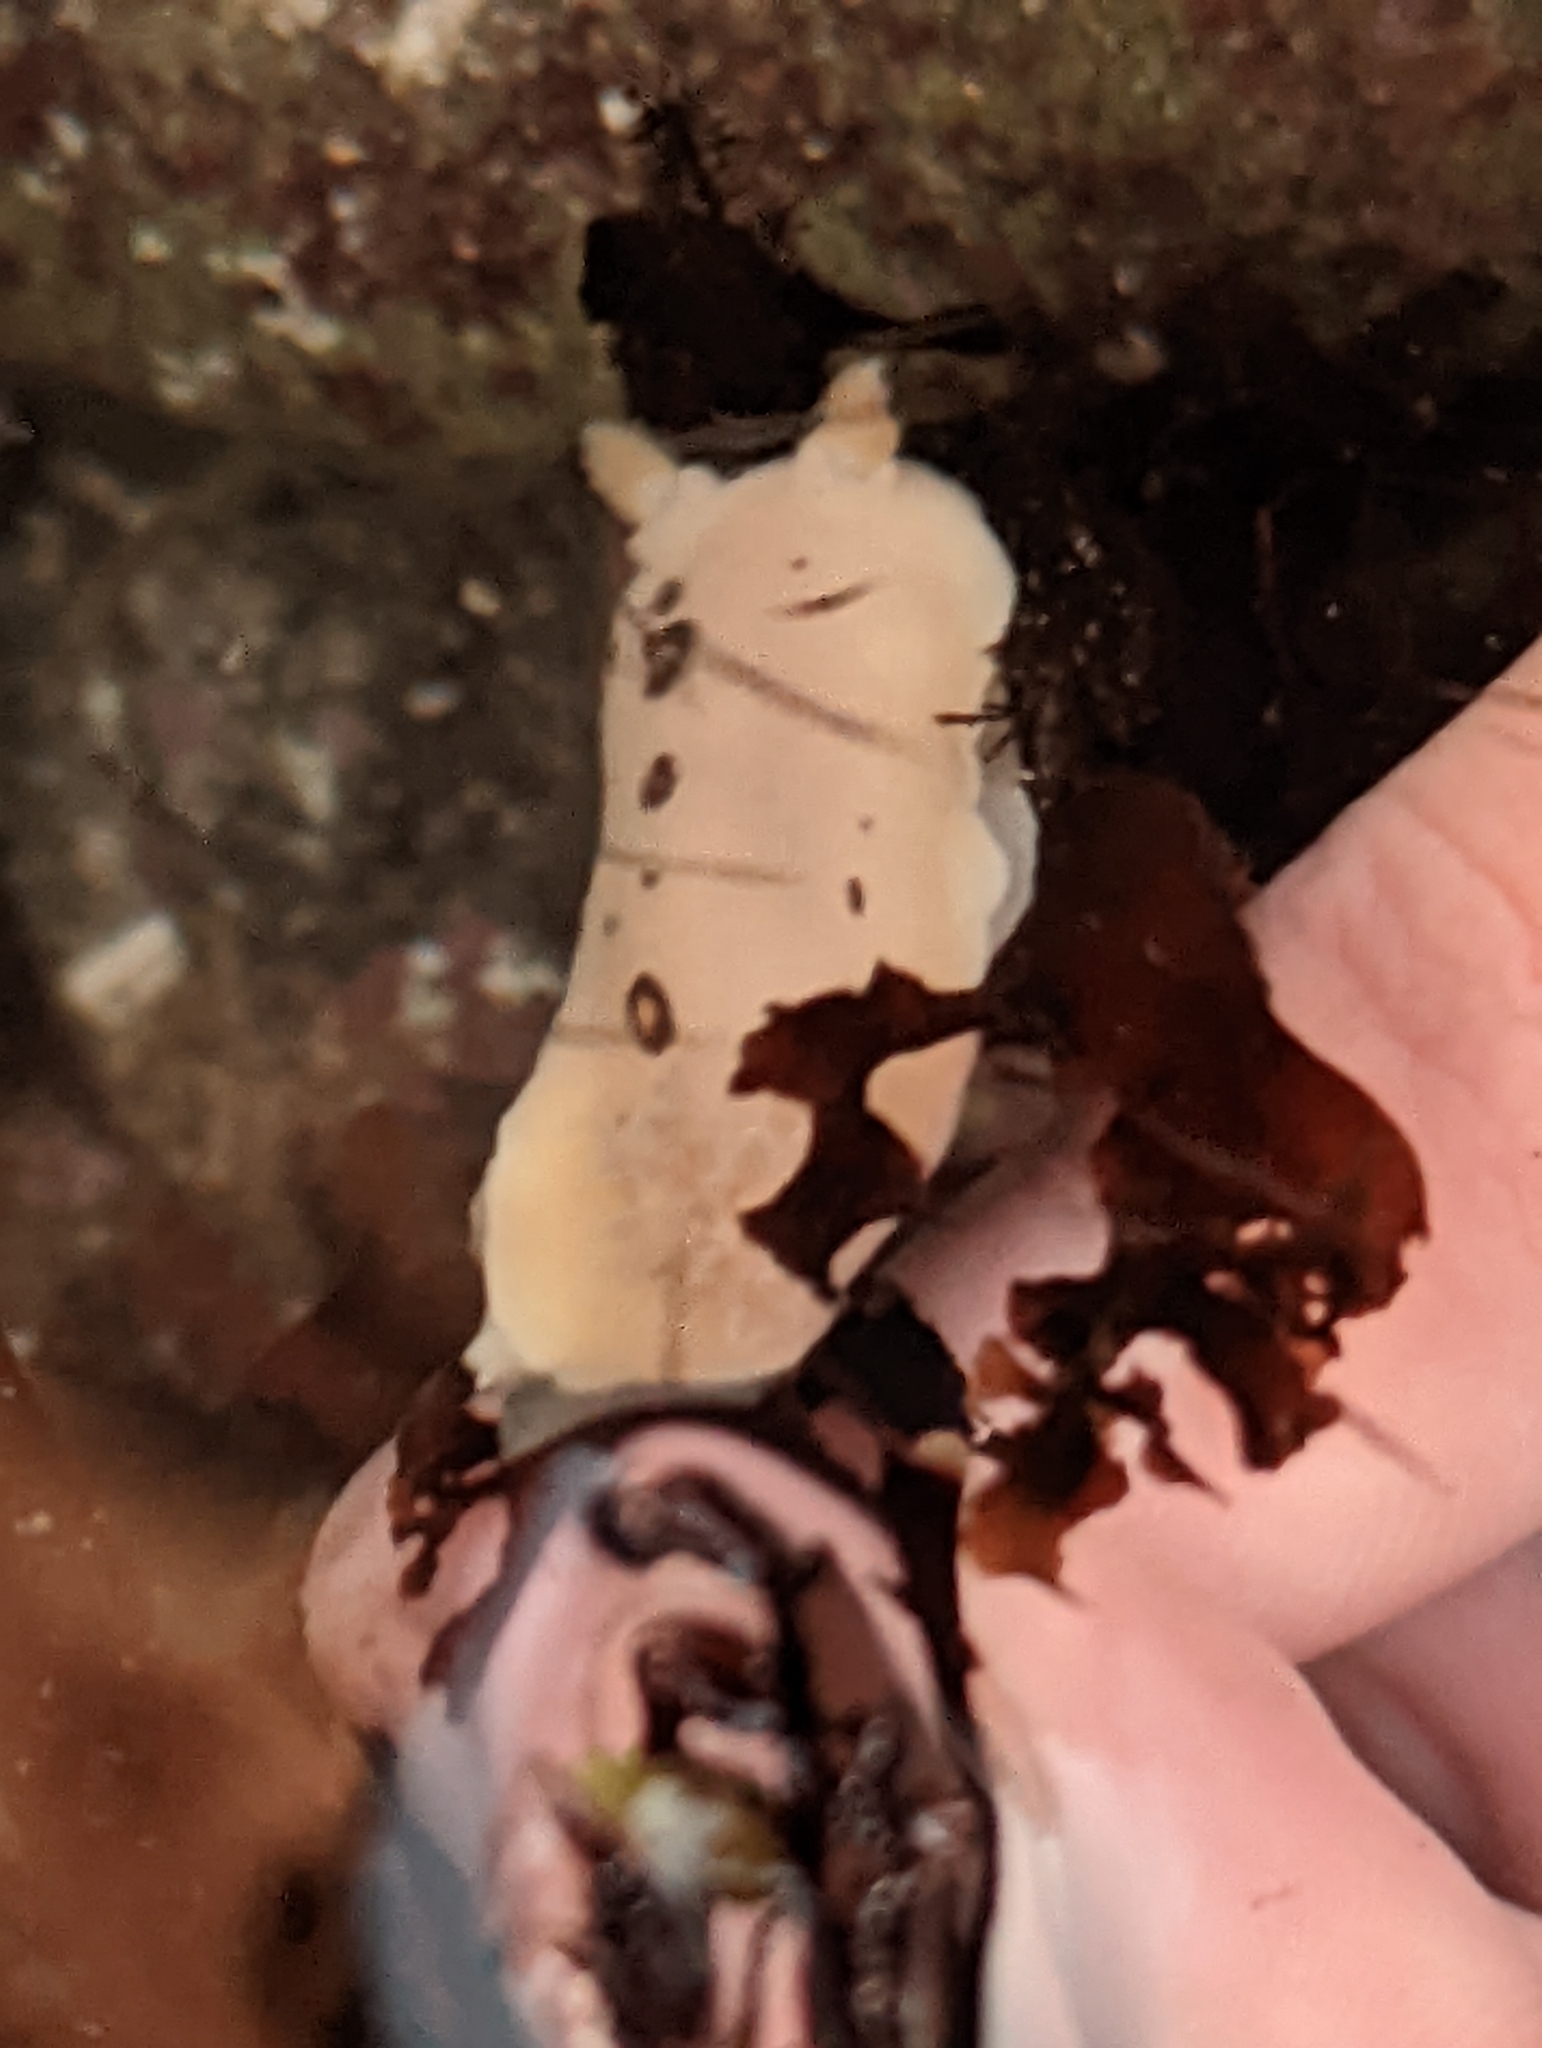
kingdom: Animalia
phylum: Mollusca
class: Gastropoda
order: Nudibranchia
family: Discodorididae
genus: Diaulula
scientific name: Diaulula sandiegensis
